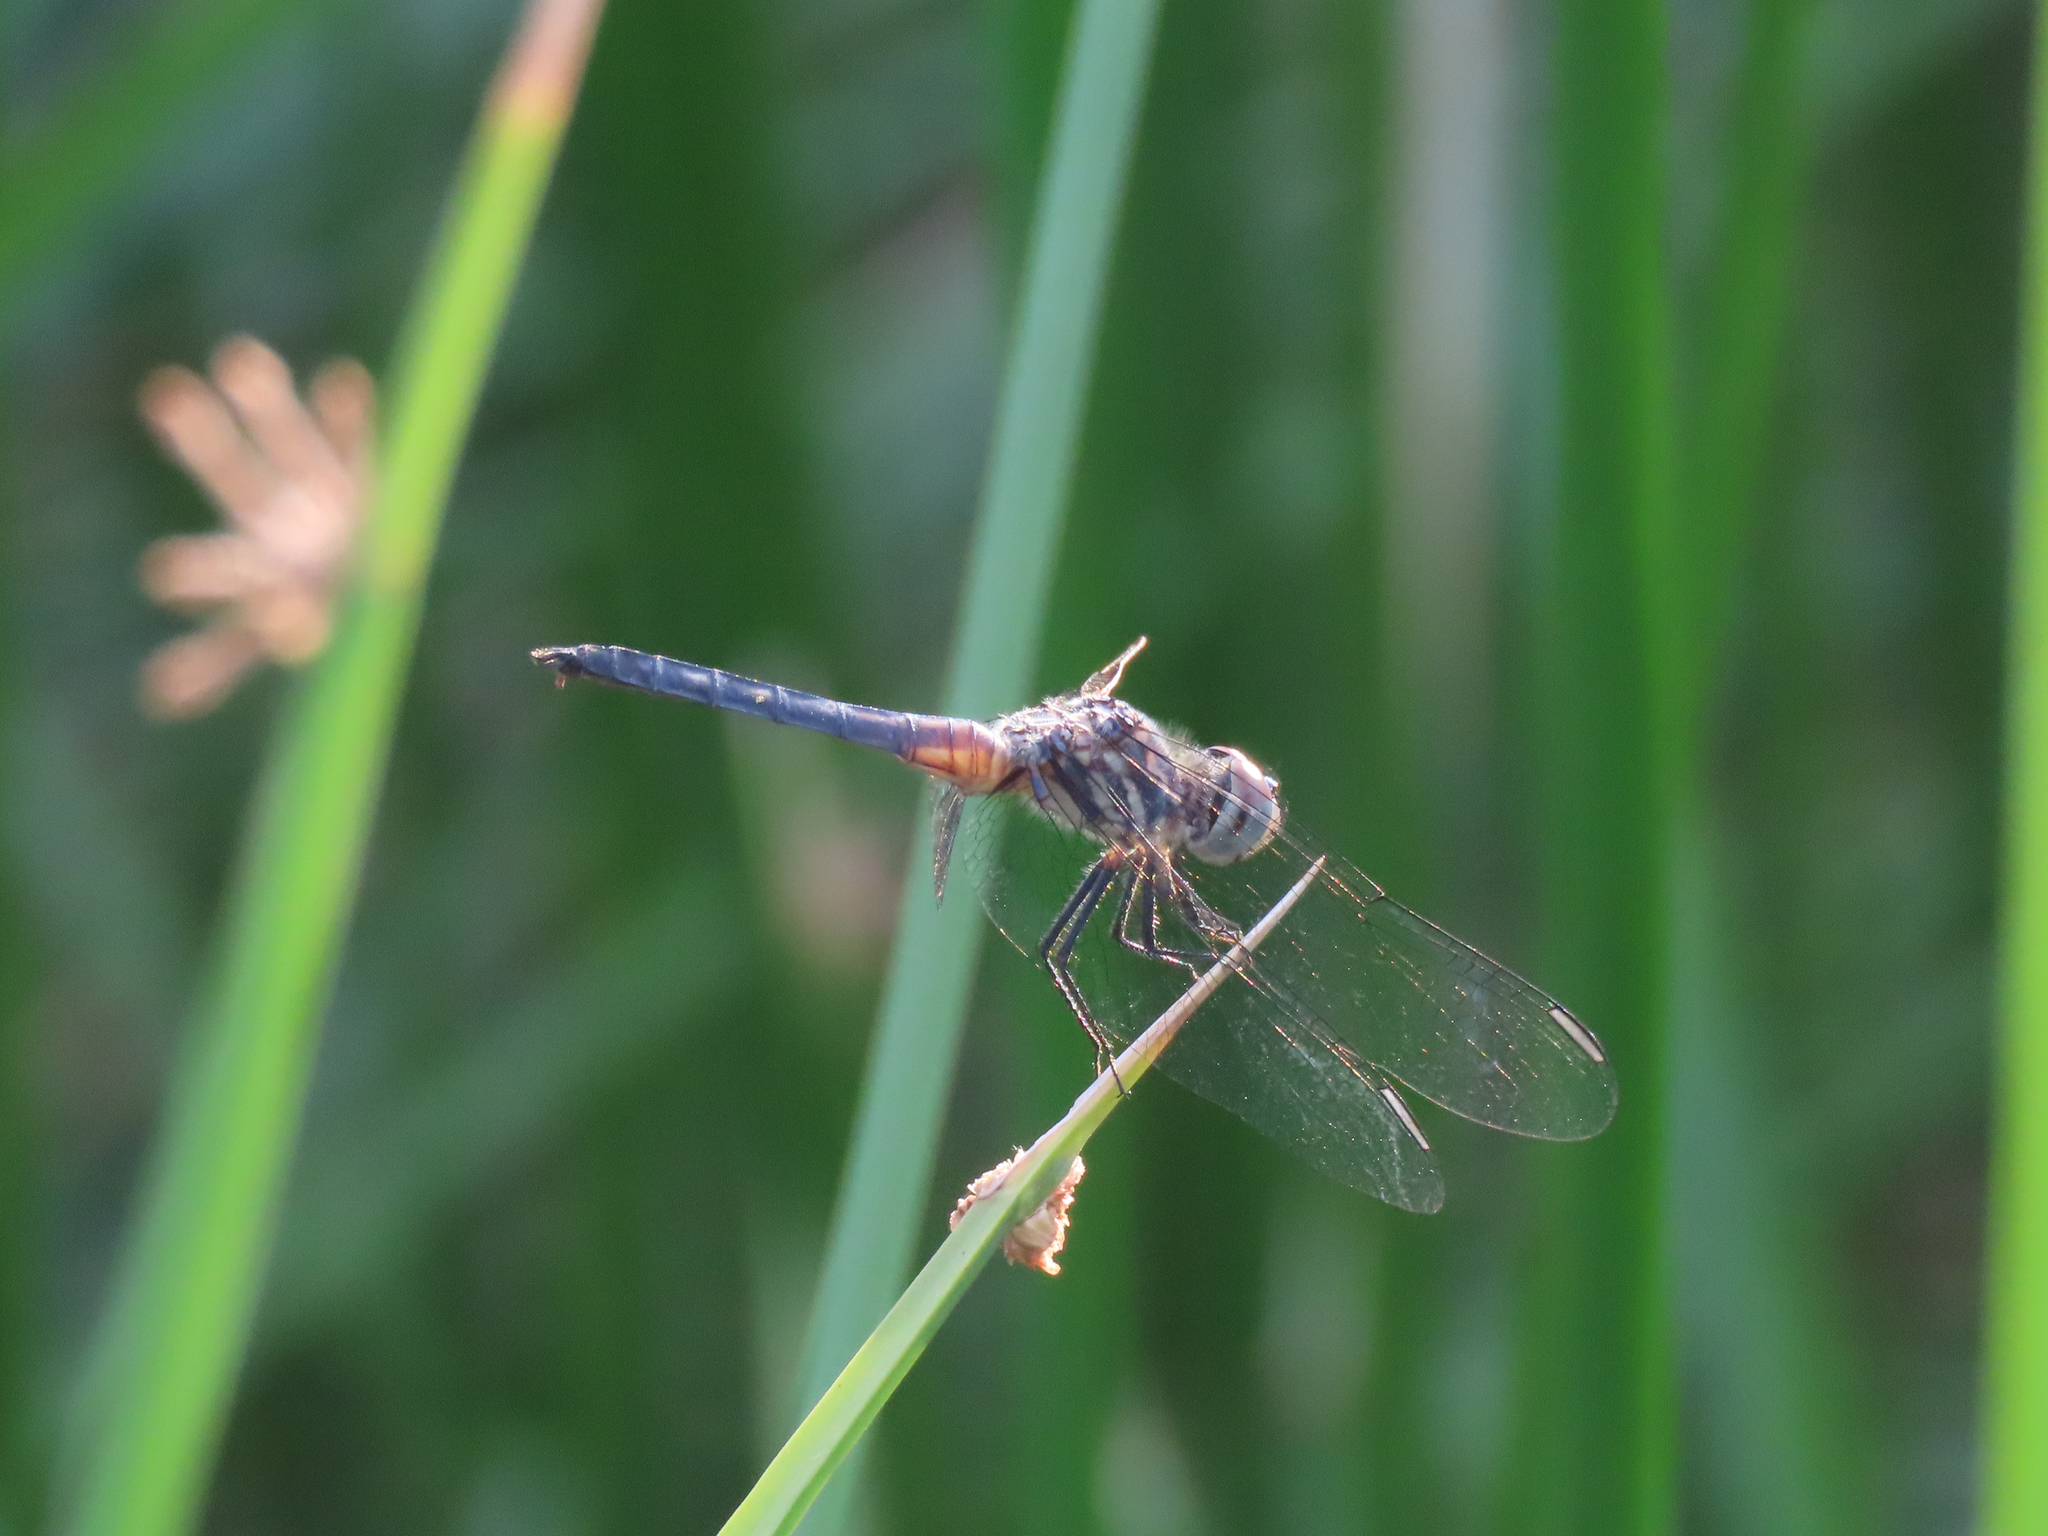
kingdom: Animalia
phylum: Arthropoda
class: Insecta
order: Odonata
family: Libellulidae
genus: Pachydiplax
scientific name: Pachydiplax longipennis
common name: Blue dasher
